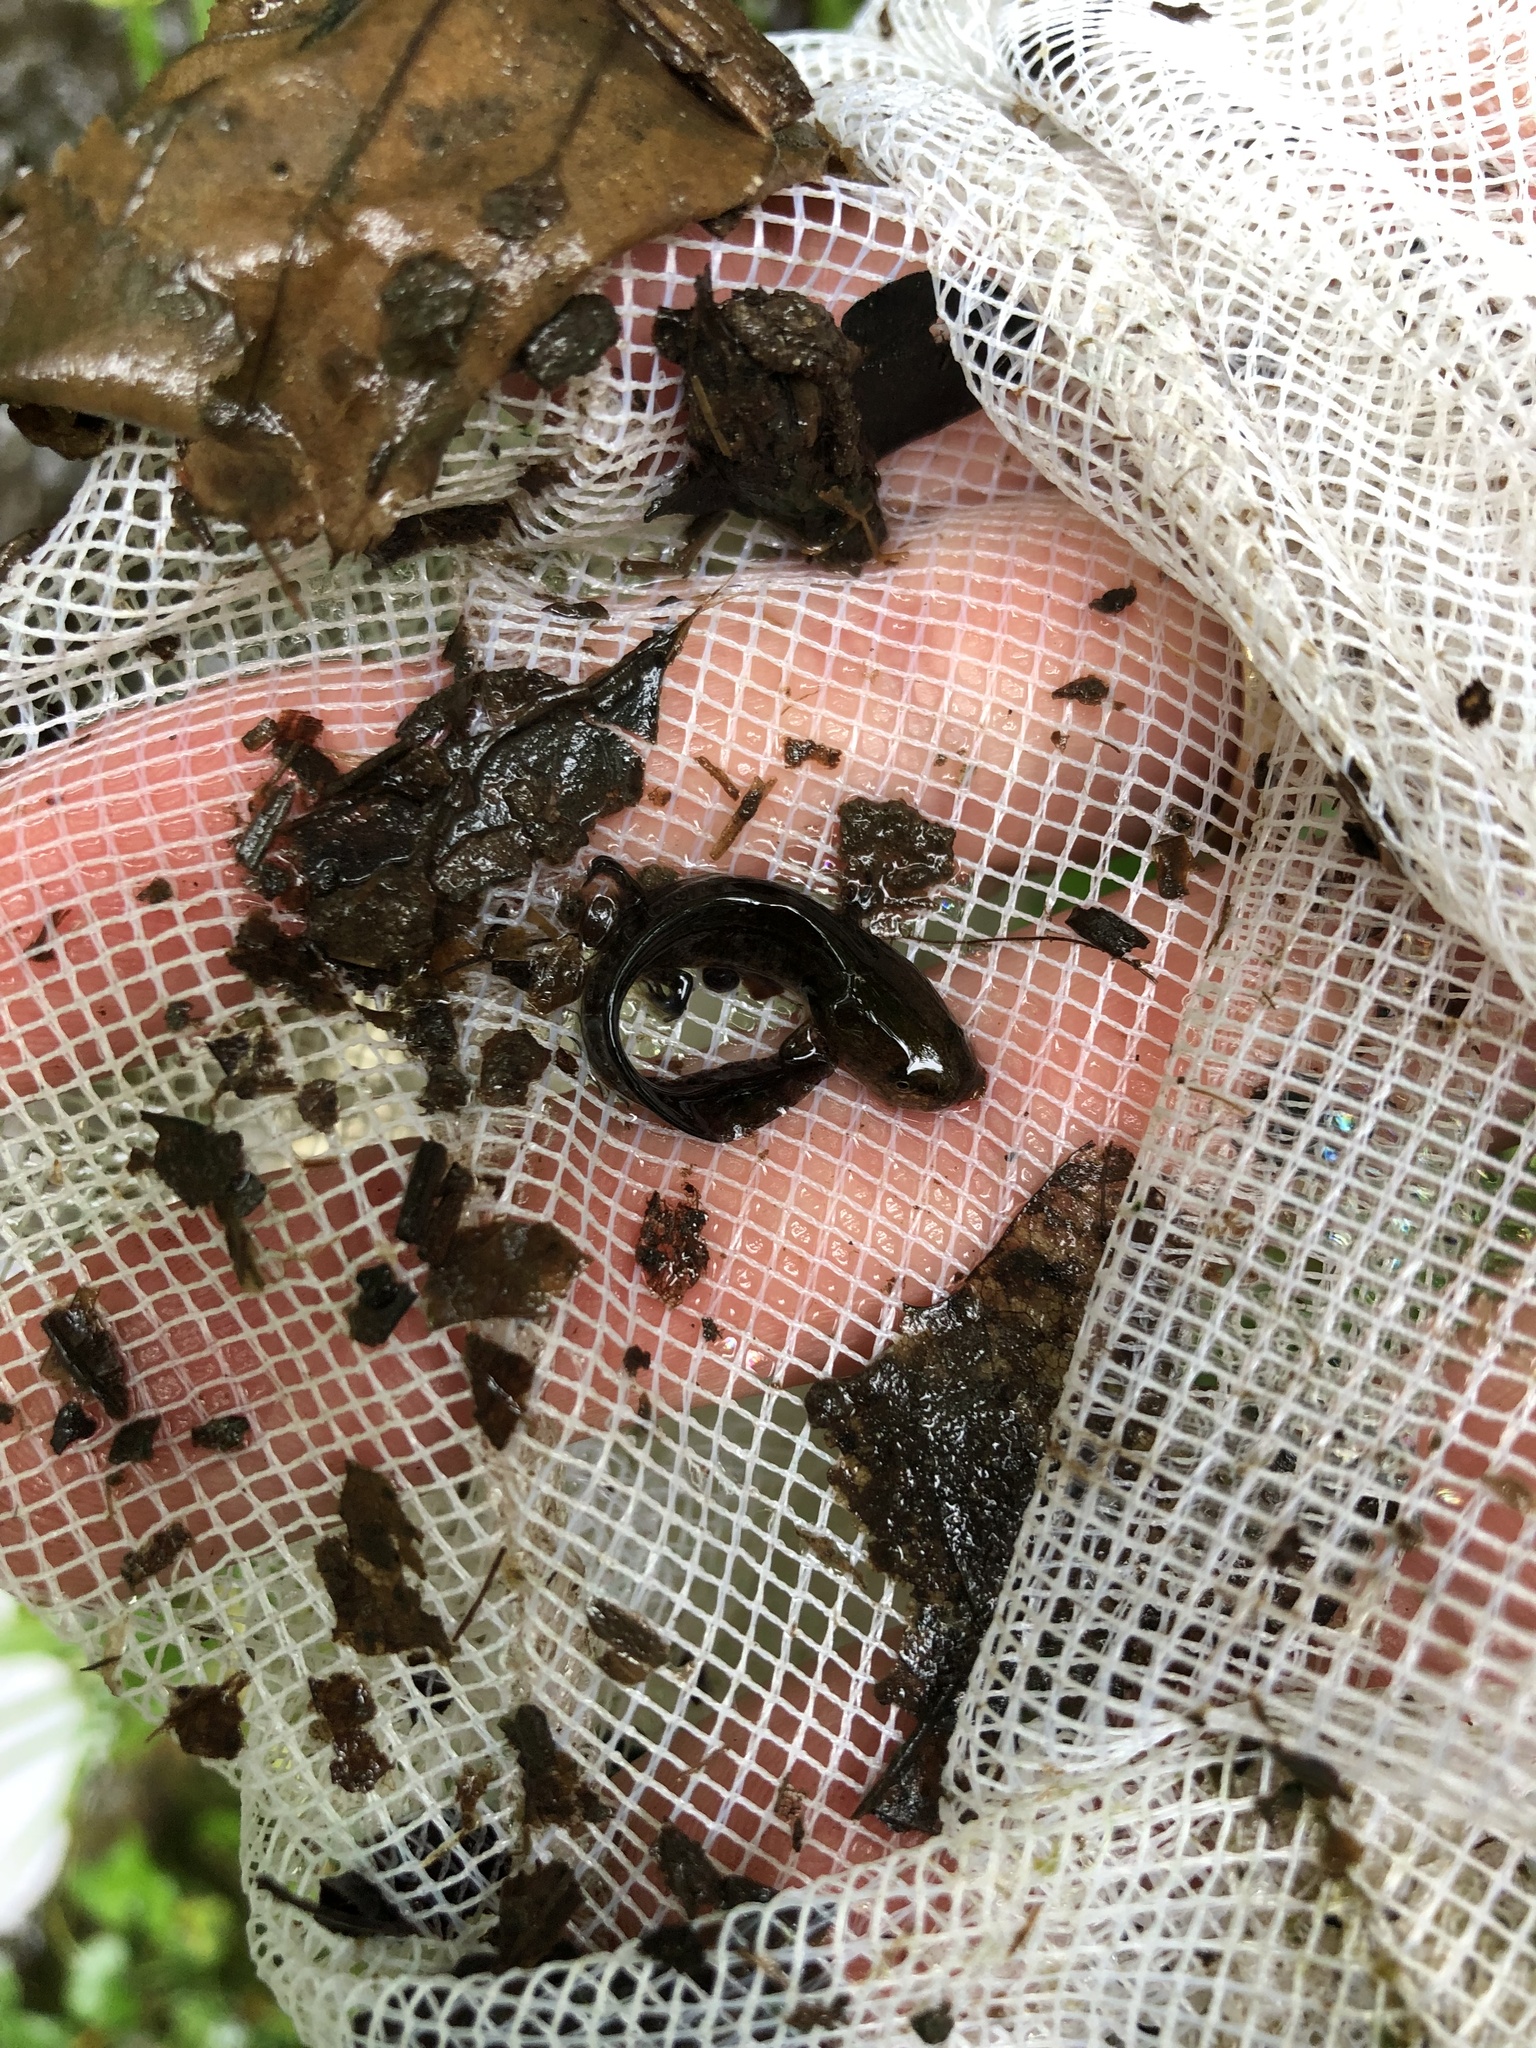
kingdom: Animalia
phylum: Chordata
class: Amphibia
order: Caudata
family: Ambystomatidae
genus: Ambystoma
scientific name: Ambystoma
